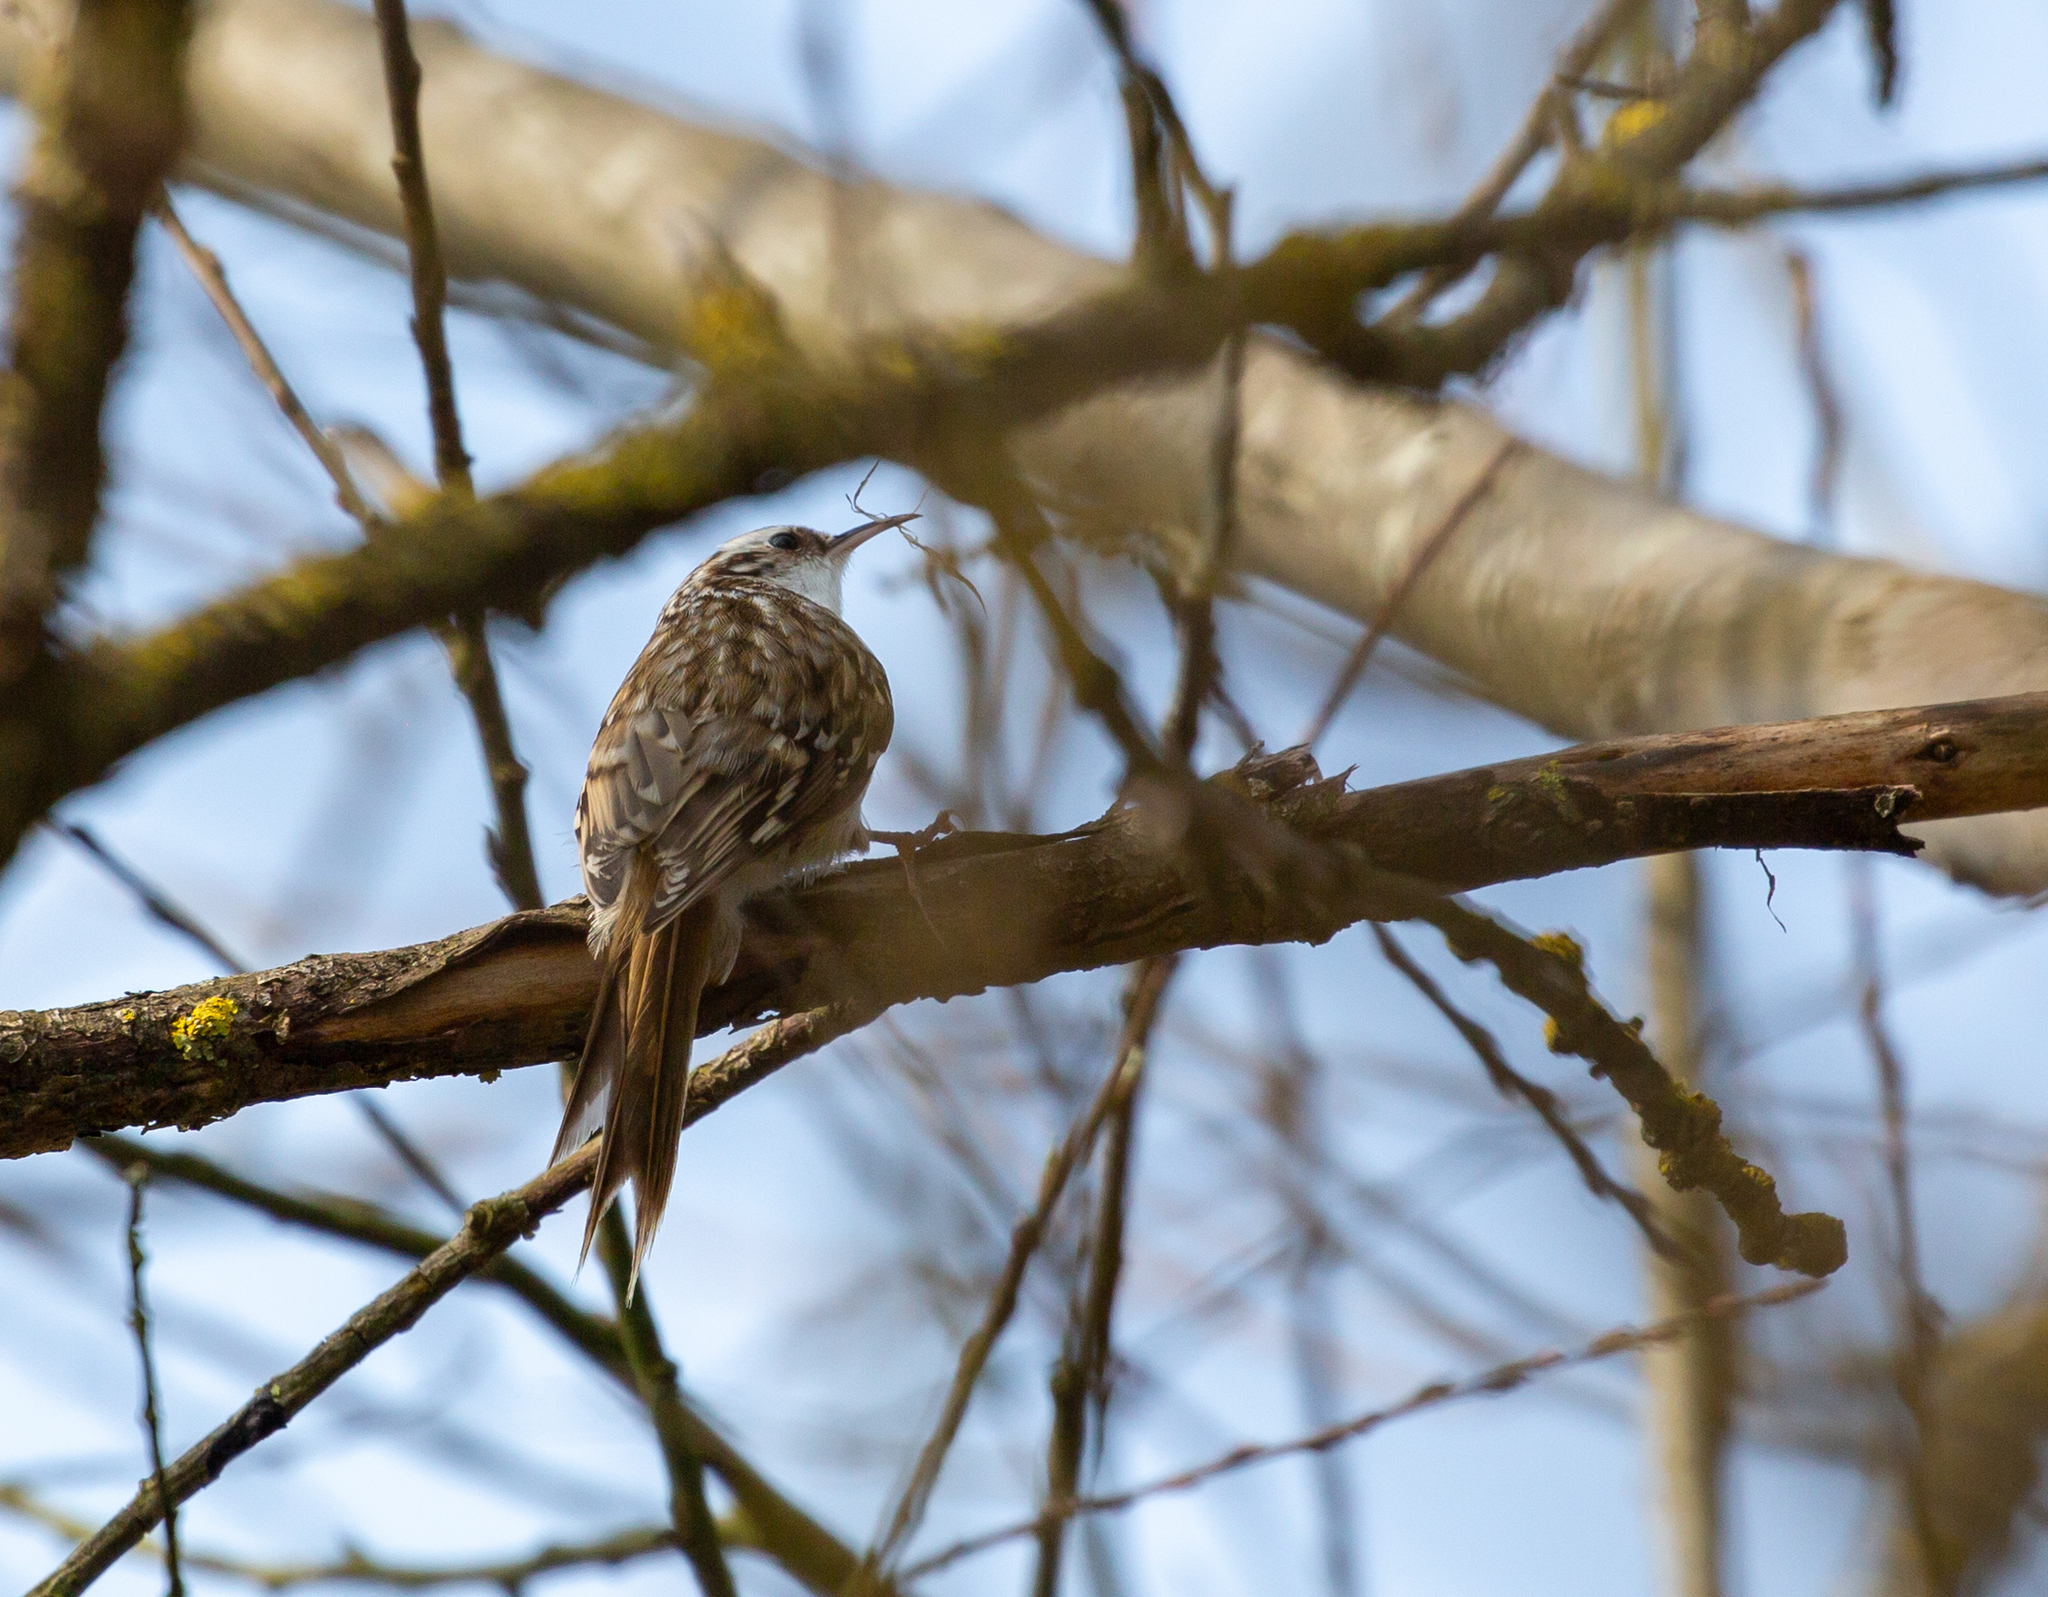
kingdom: Animalia
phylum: Chordata
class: Aves
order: Passeriformes
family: Certhiidae
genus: Certhia
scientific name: Certhia familiaris
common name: Eurasian treecreeper
